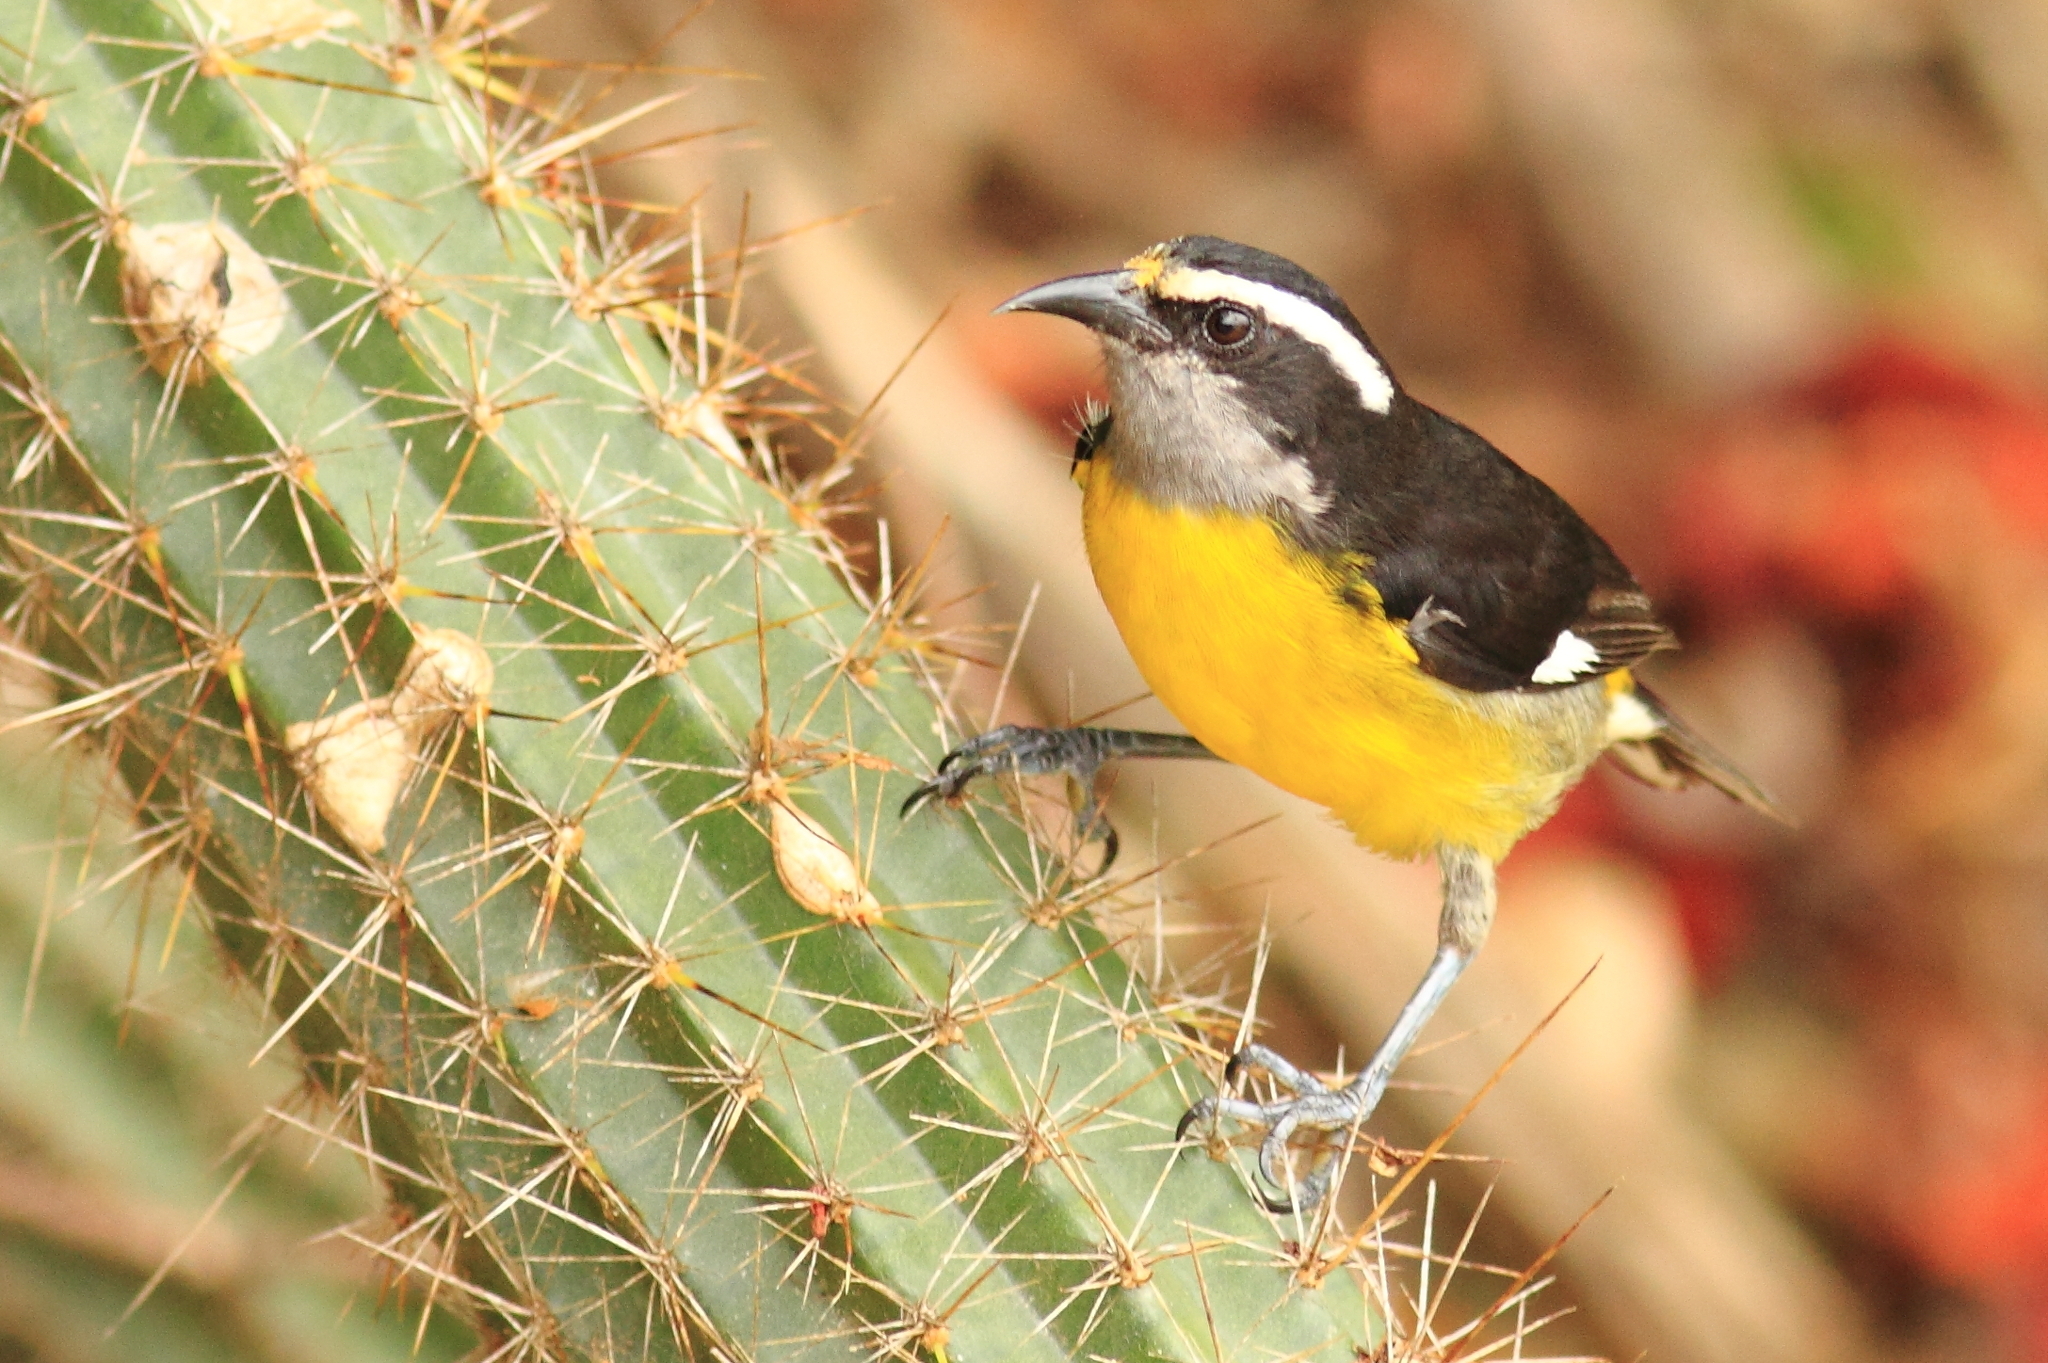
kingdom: Animalia
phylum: Chordata
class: Aves
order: Passeriformes
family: Thraupidae
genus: Coereba
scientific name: Coereba flaveola
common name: Bananaquit
